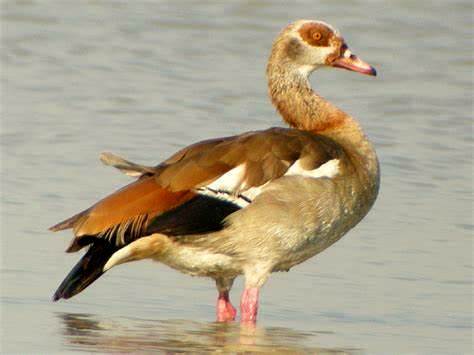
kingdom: Animalia
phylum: Chordata
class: Aves
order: Anseriformes
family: Anatidae
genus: Alopochen
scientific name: Alopochen aegyptiaca
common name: Egyptian goose
